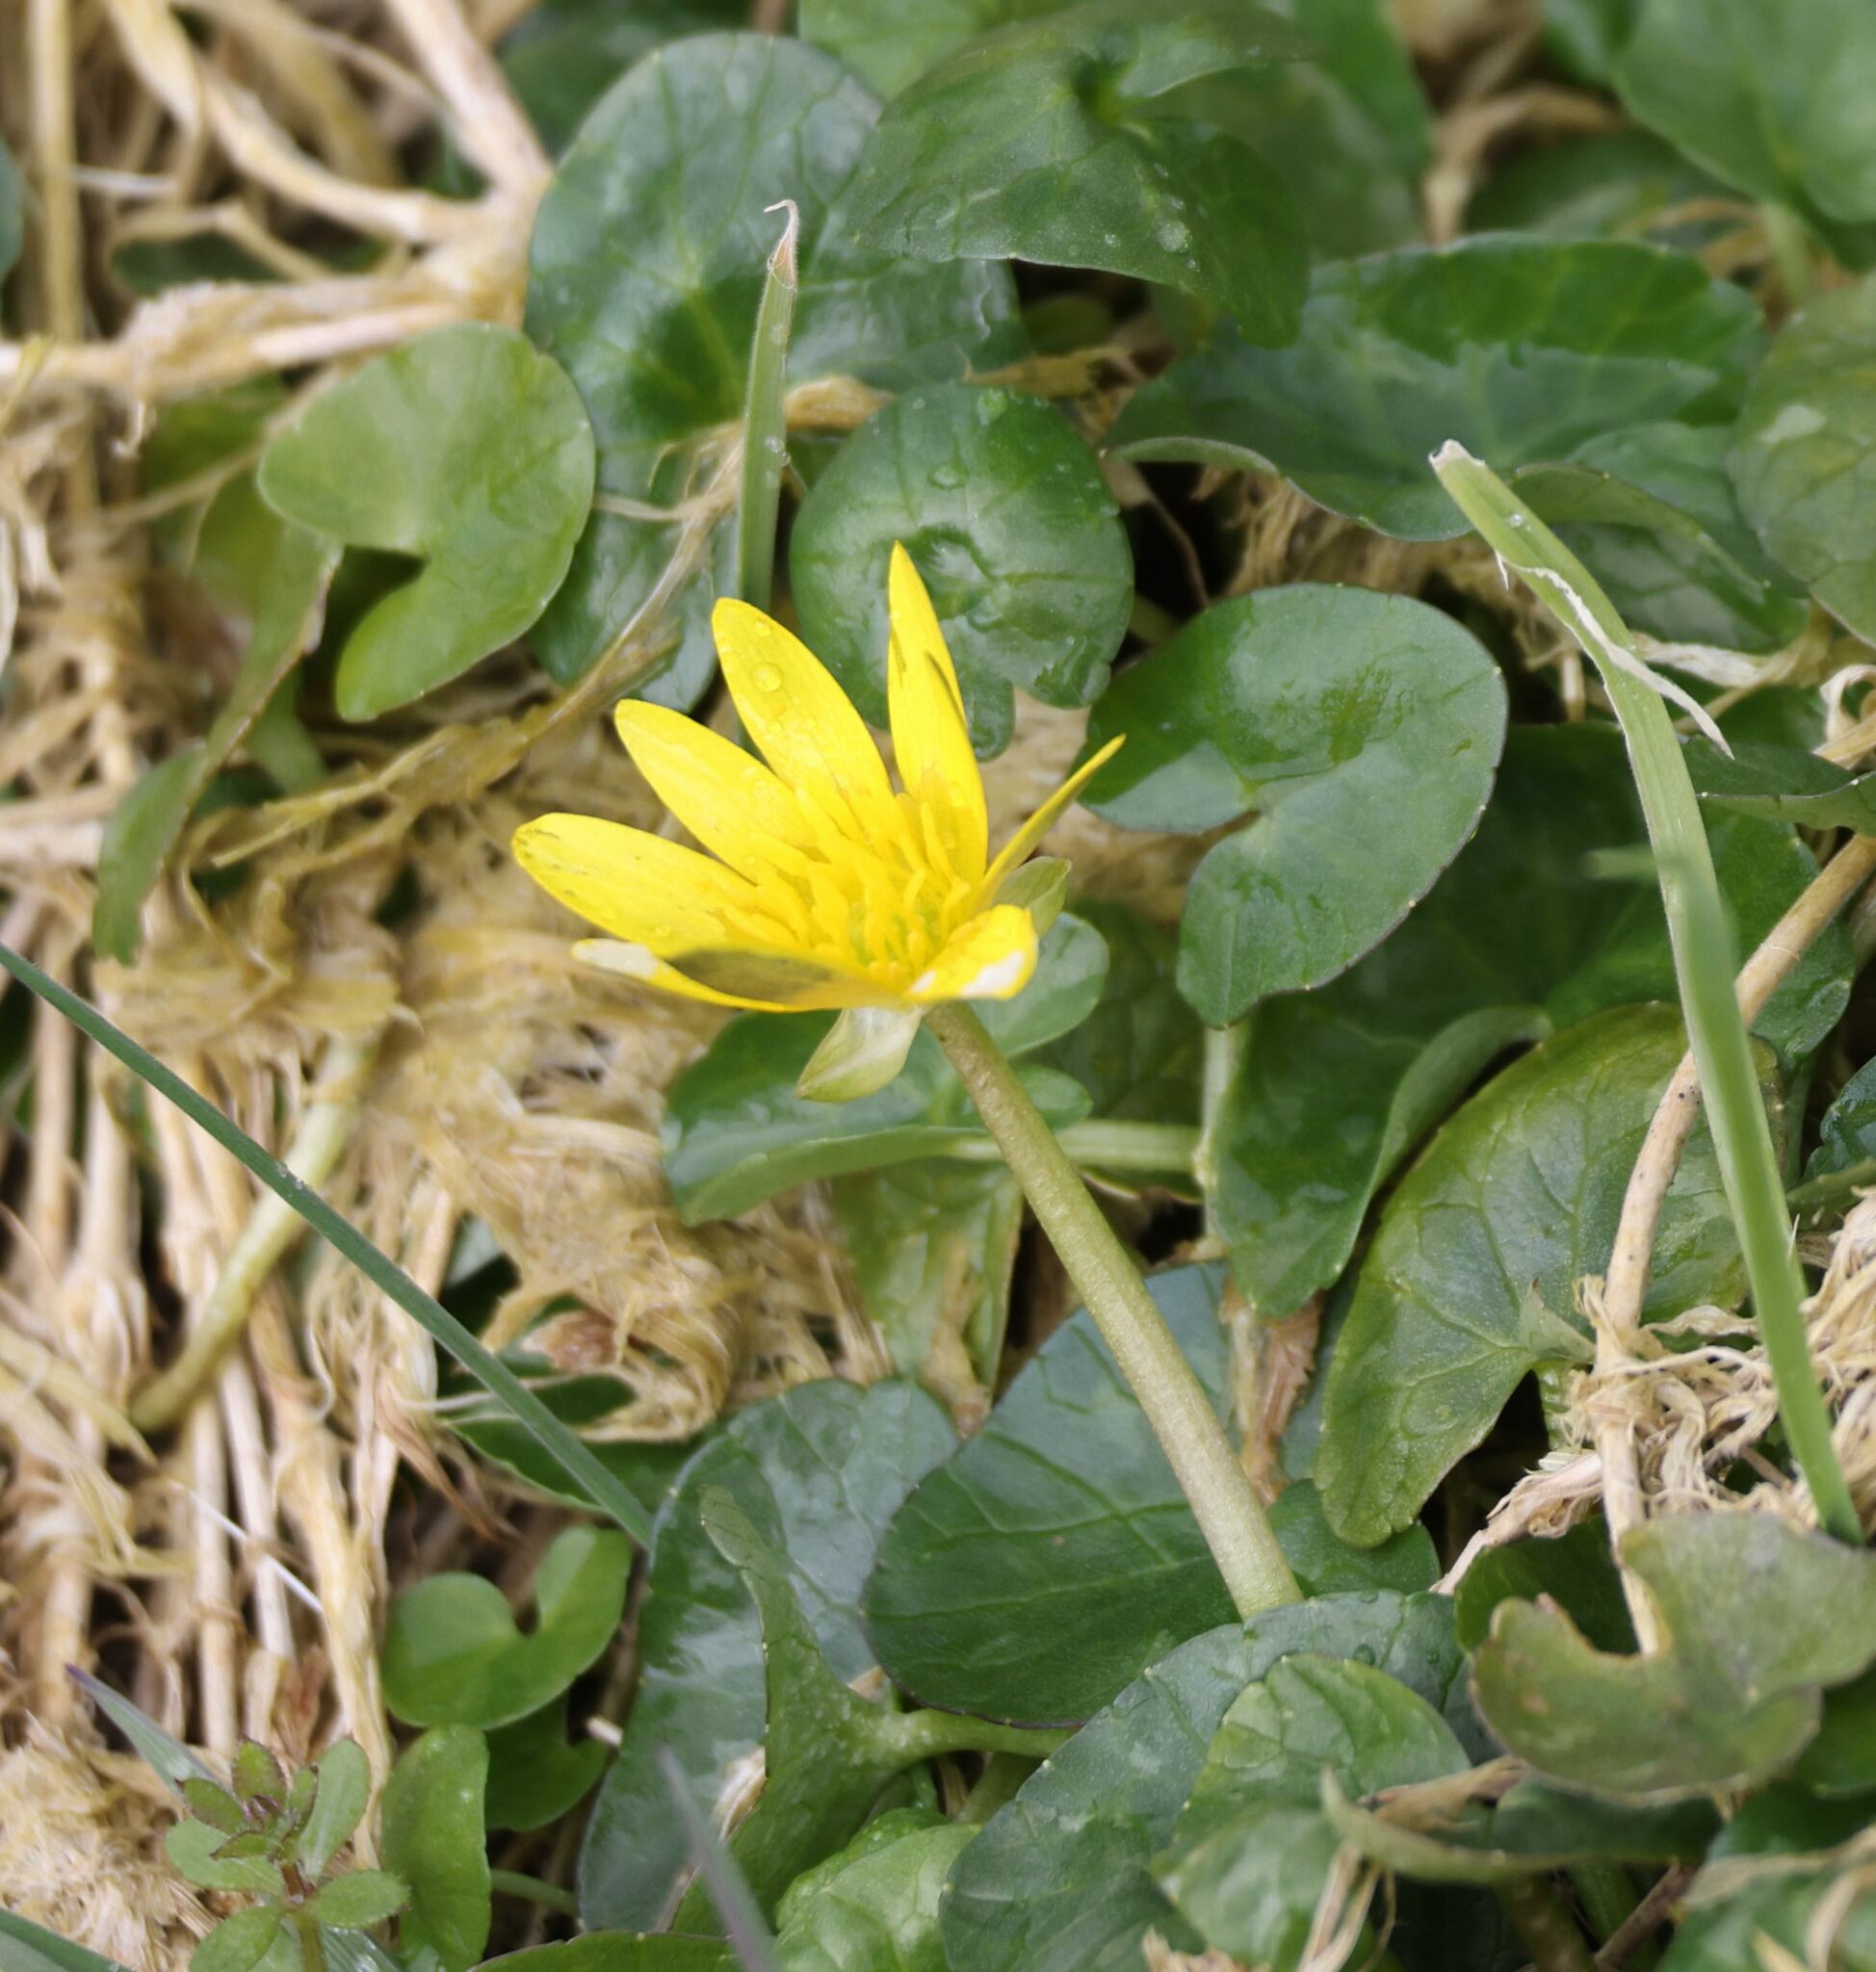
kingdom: Plantae
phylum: Tracheophyta
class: Magnoliopsida
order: Ranunculales
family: Ranunculaceae
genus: Ficaria
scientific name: Ficaria verna
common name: Lesser celandine
